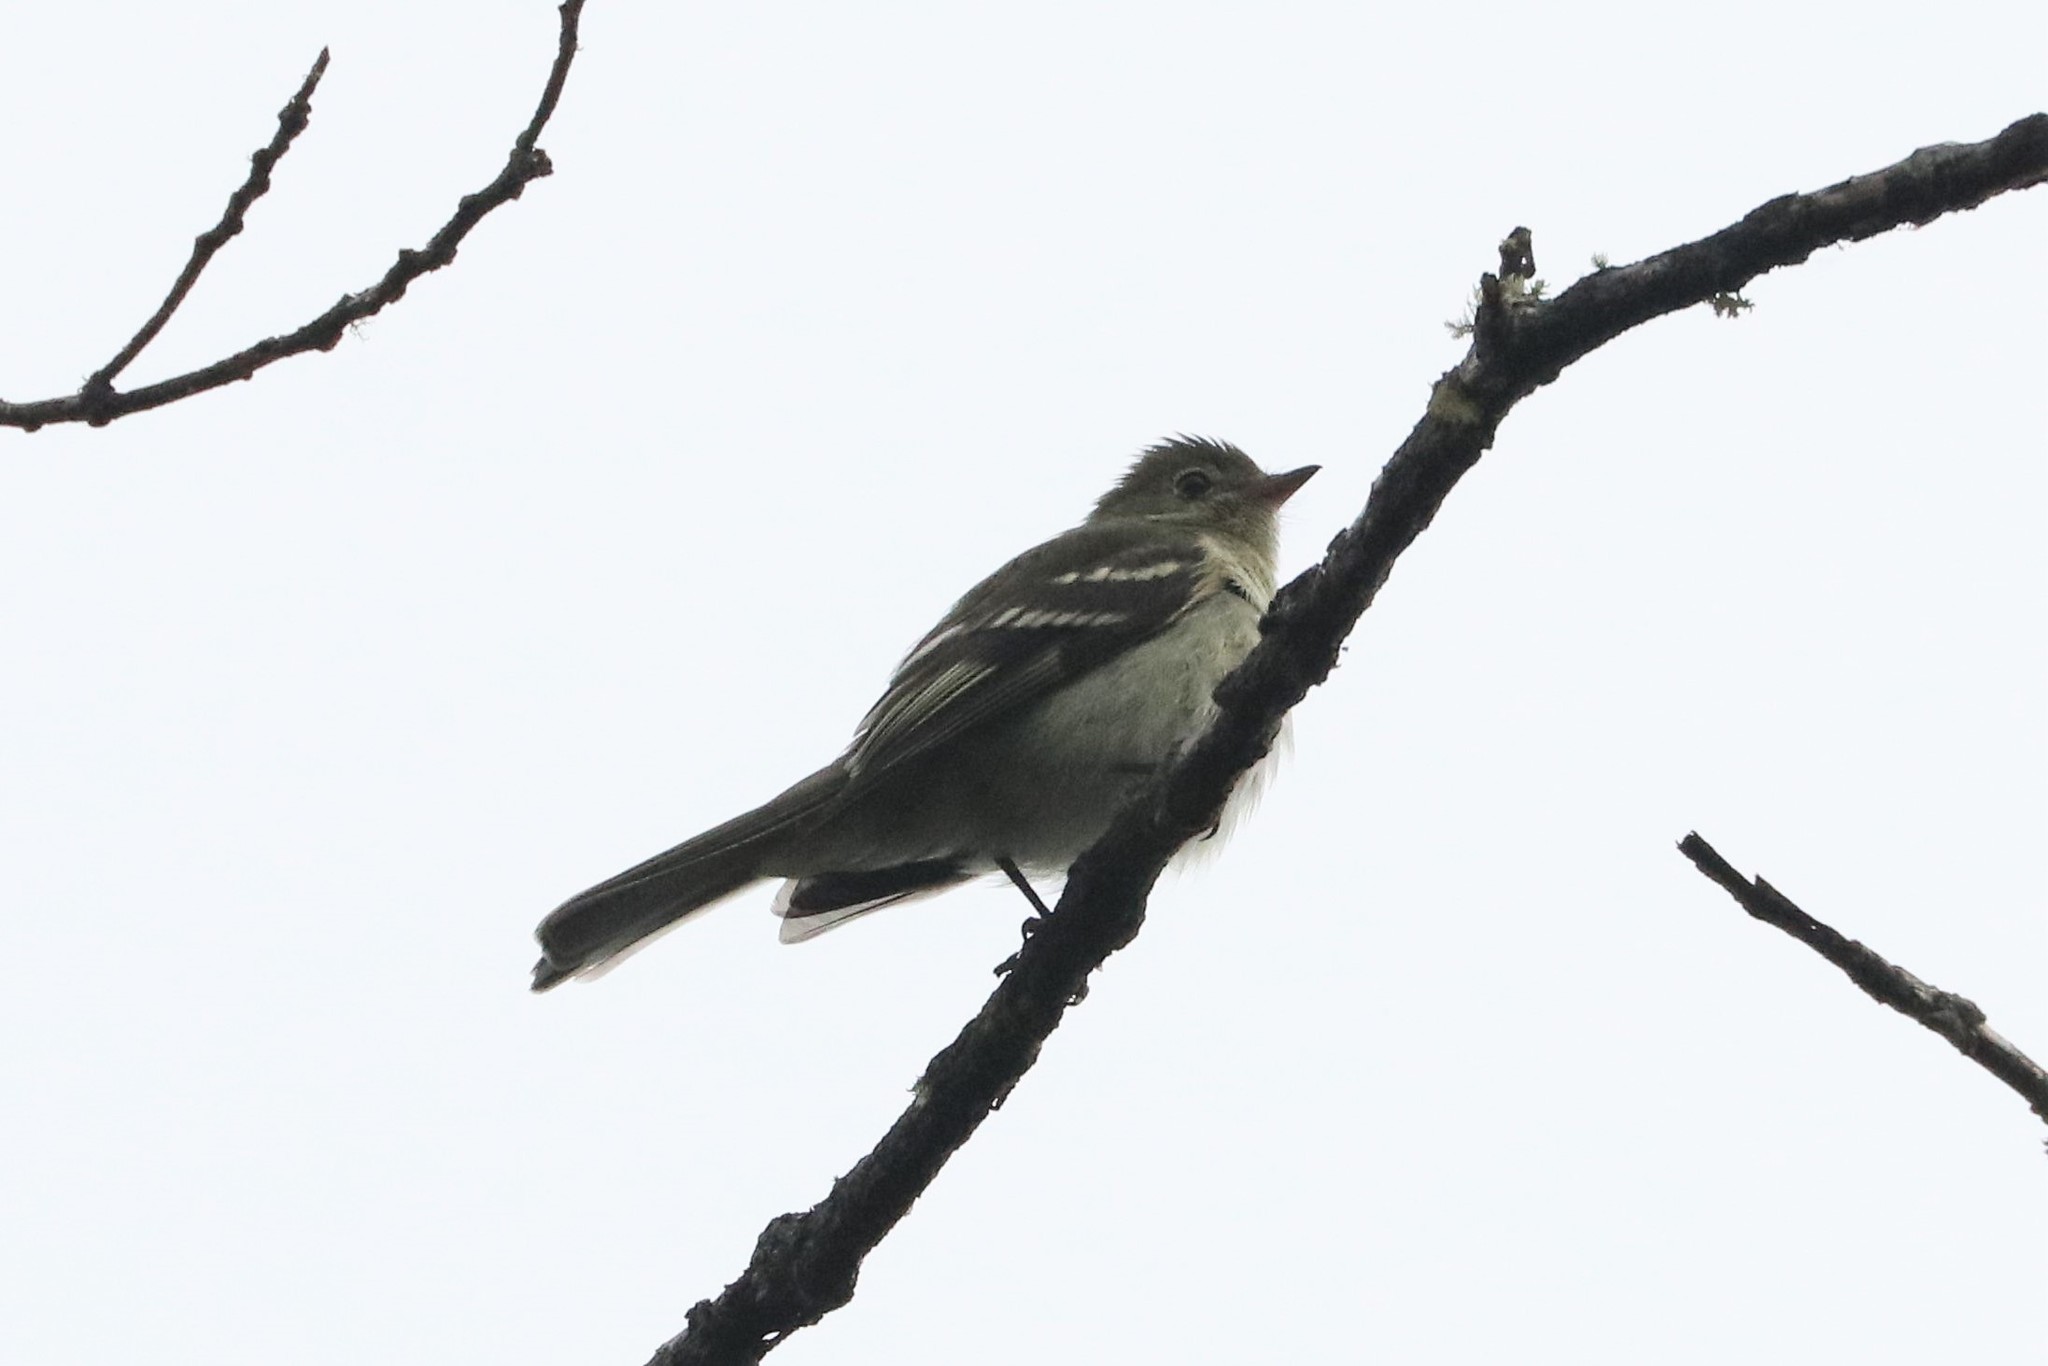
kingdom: Animalia
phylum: Chordata
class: Aves
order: Passeriformes
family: Tyrannidae
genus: Elaenia
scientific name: Elaenia frantzii
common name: Mountain elaenia
